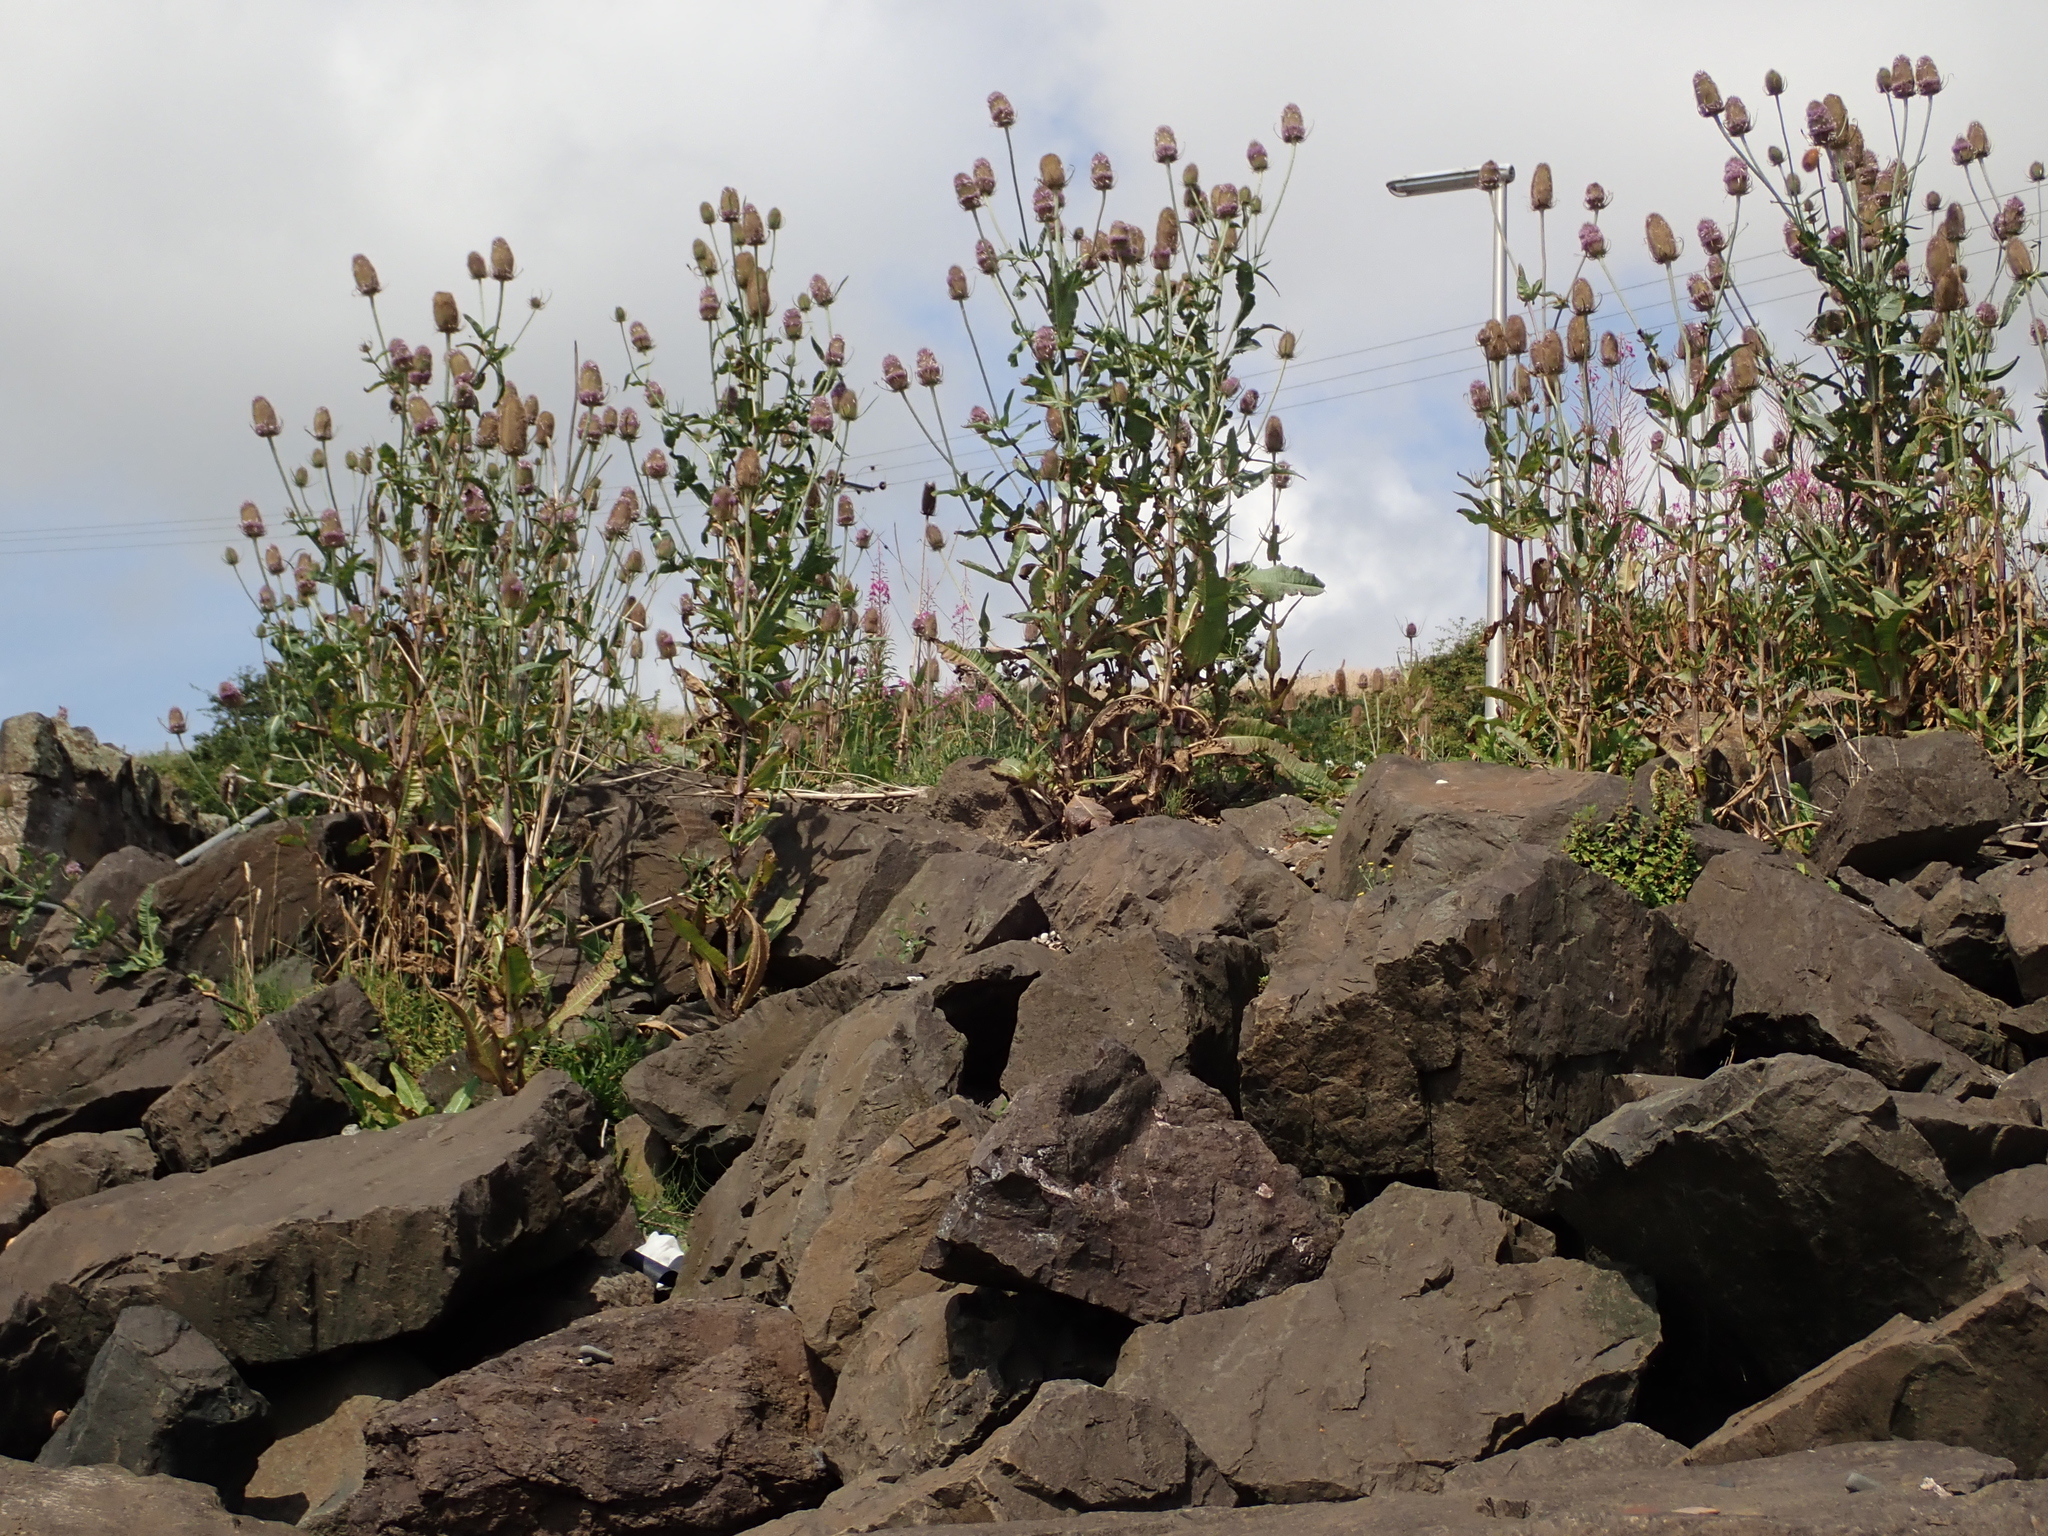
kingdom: Plantae
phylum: Tracheophyta
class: Magnoliopsida
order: Dipsacales
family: Caprifoliaceae
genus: Dipsacus
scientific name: Dipsacus fullonum
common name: Teasel
